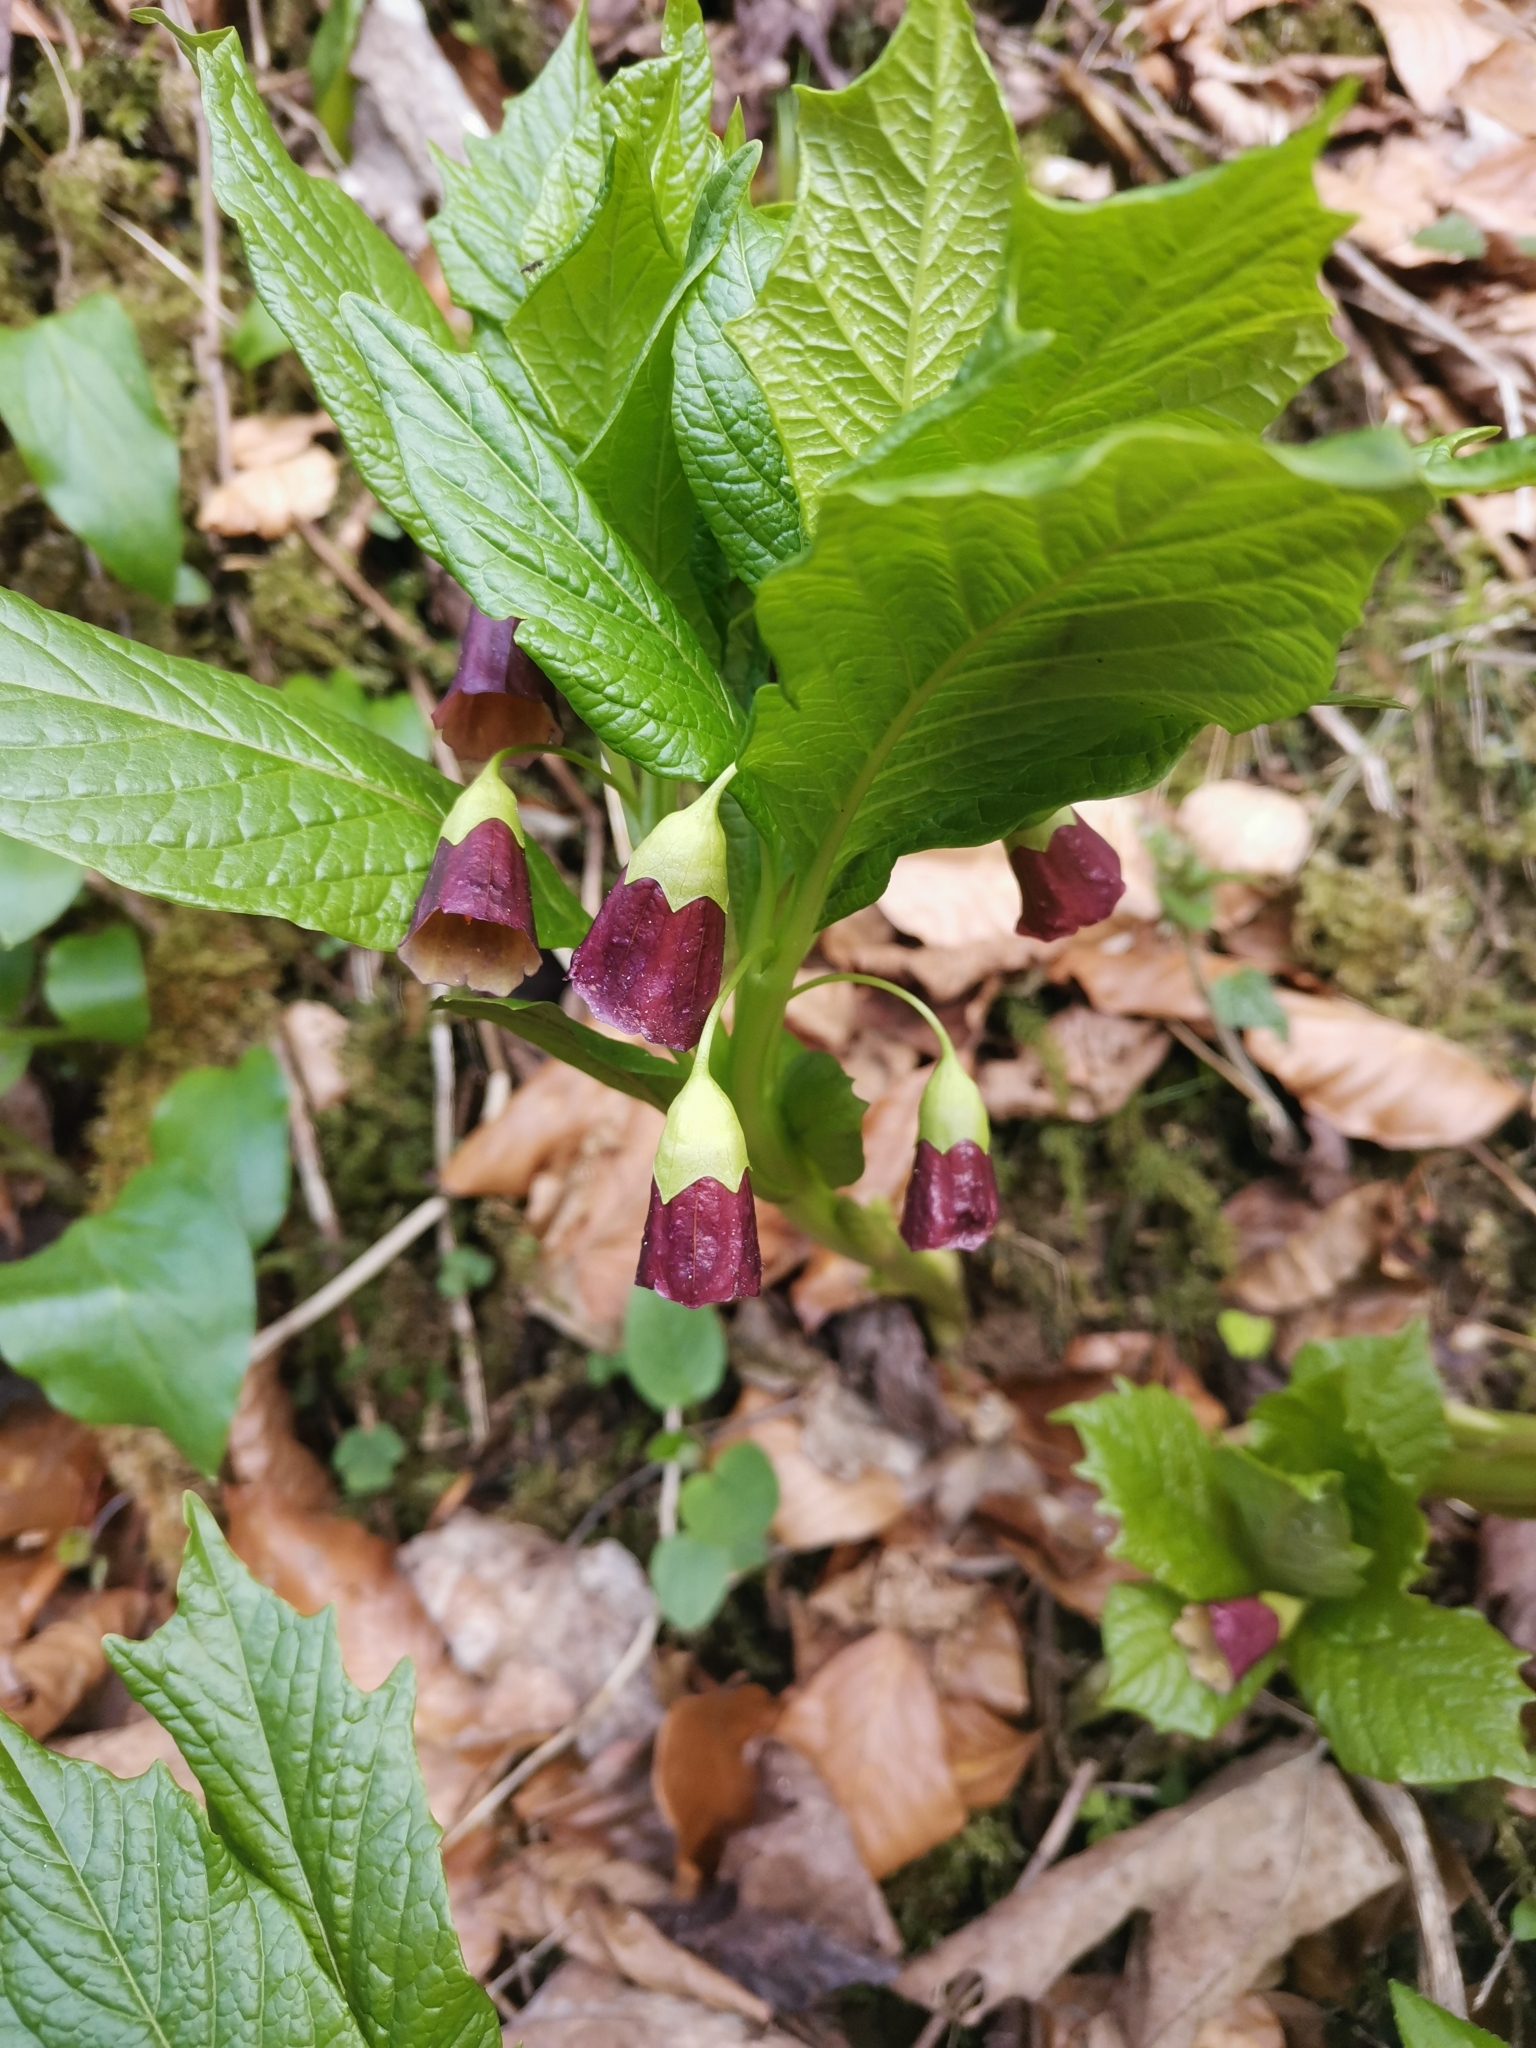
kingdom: Plantae
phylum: Tracheophyta
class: Magnoliopsida
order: Solanales
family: Solanaceae
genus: Scopolia
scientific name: Scopolia carniolica
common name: Scopolia
